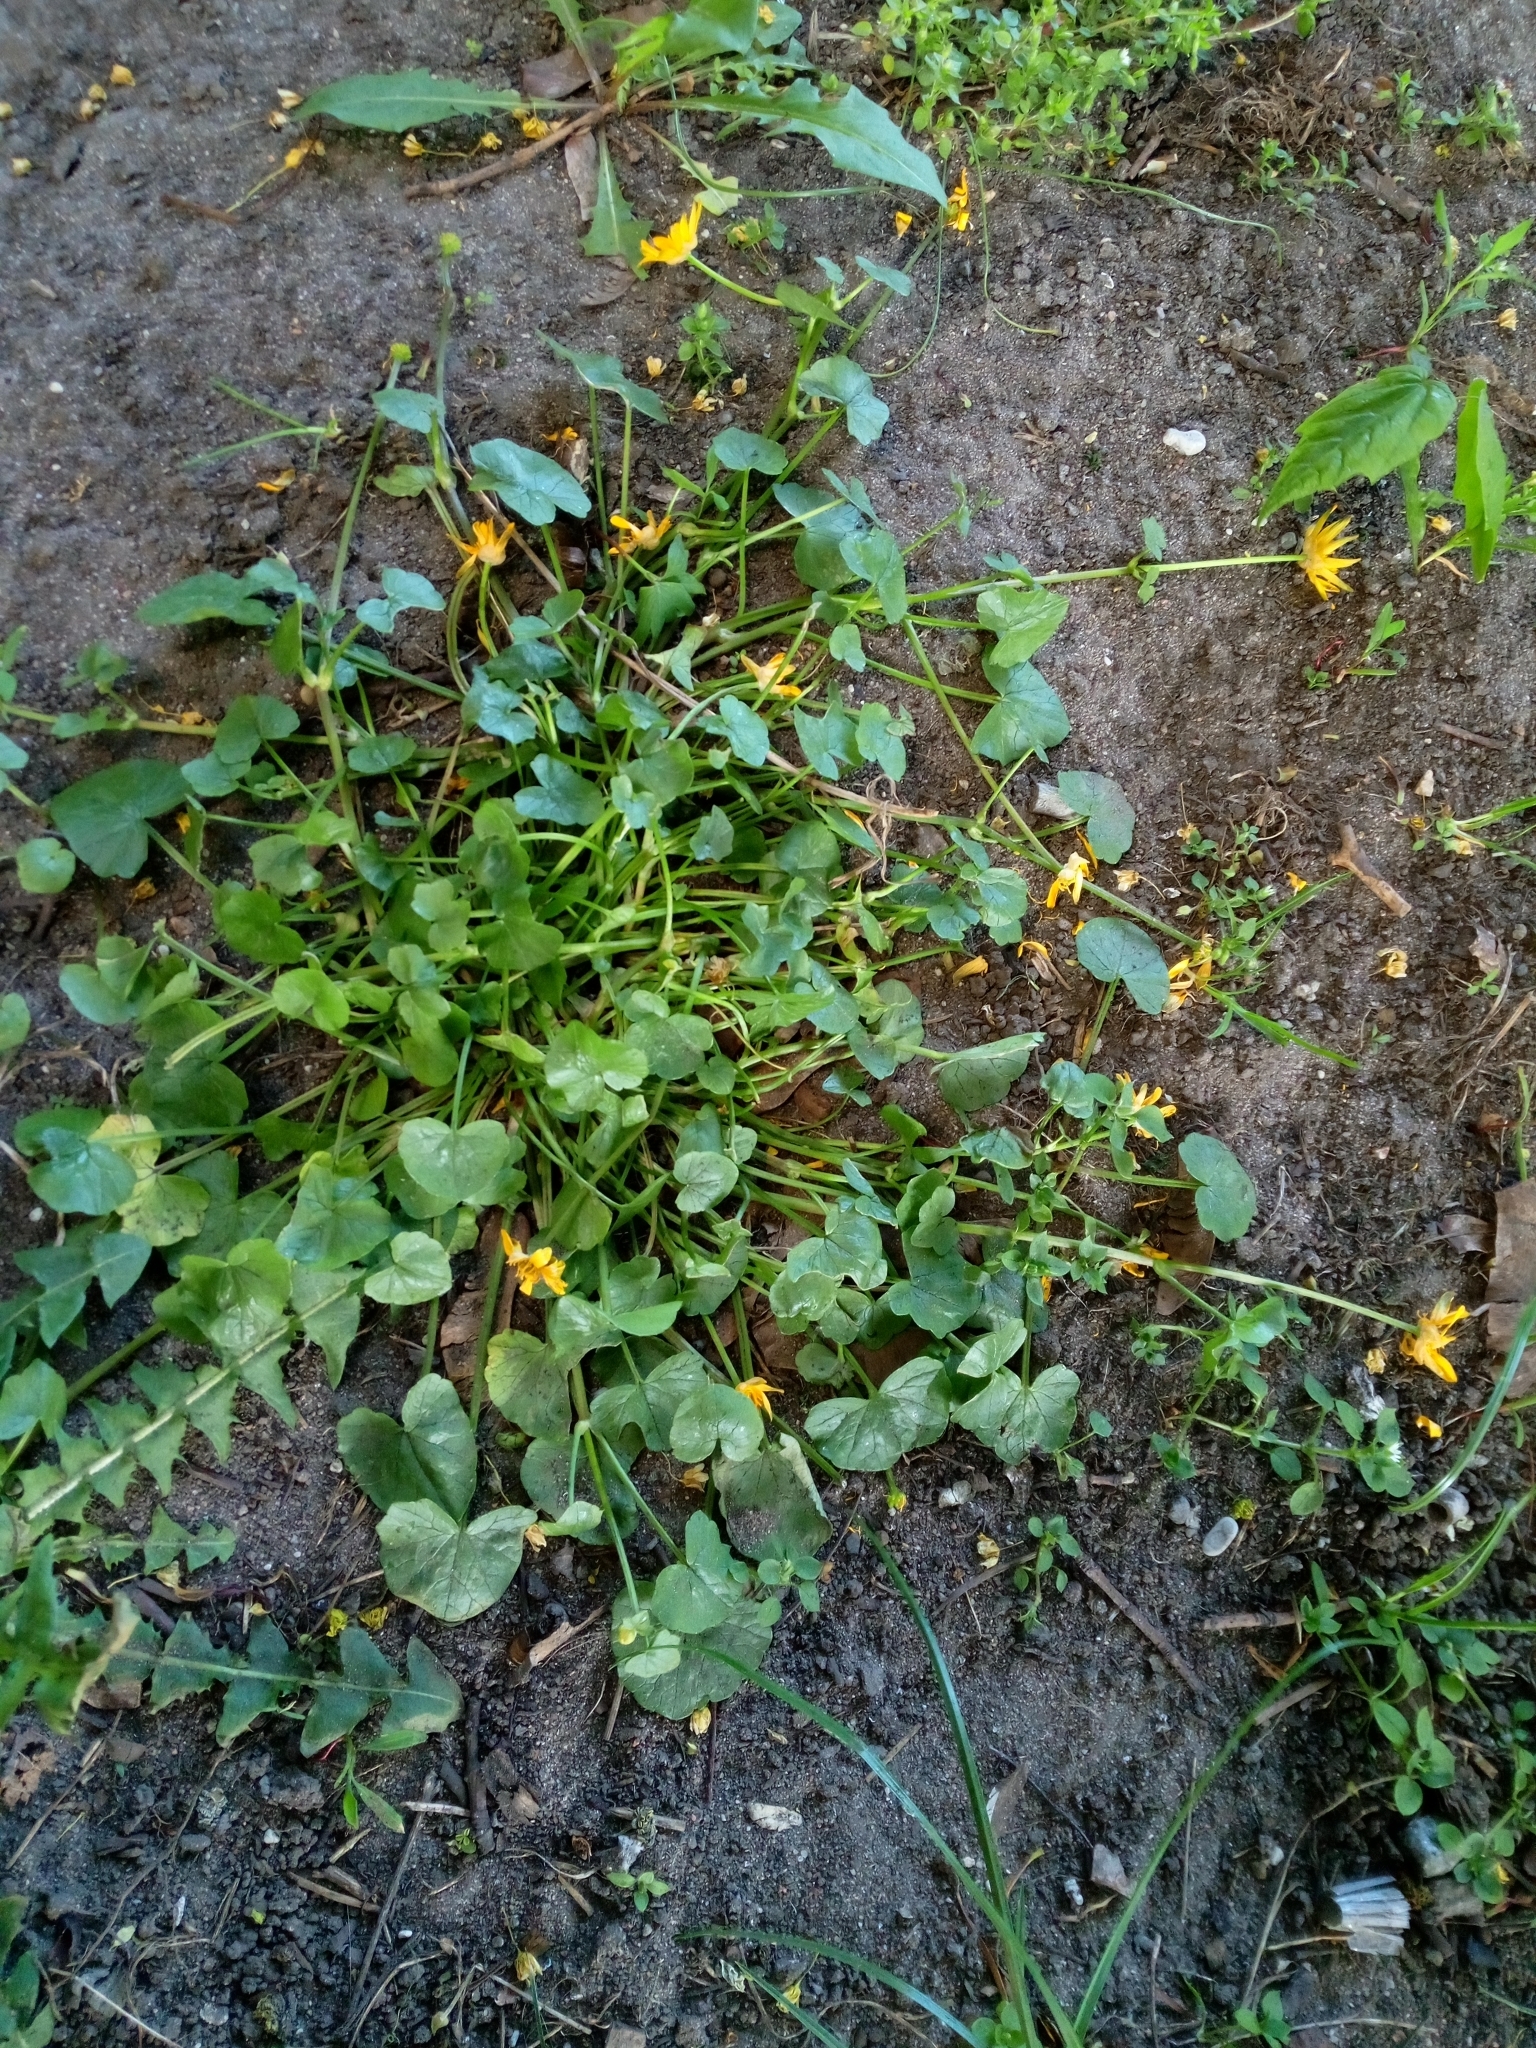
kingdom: Plantae
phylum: Tracheophyta
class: Magnoliopsida
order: Ranunculales
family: Ranunculaceae
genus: Ficaria
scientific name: Ficaria verna
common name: Lesser celandine
